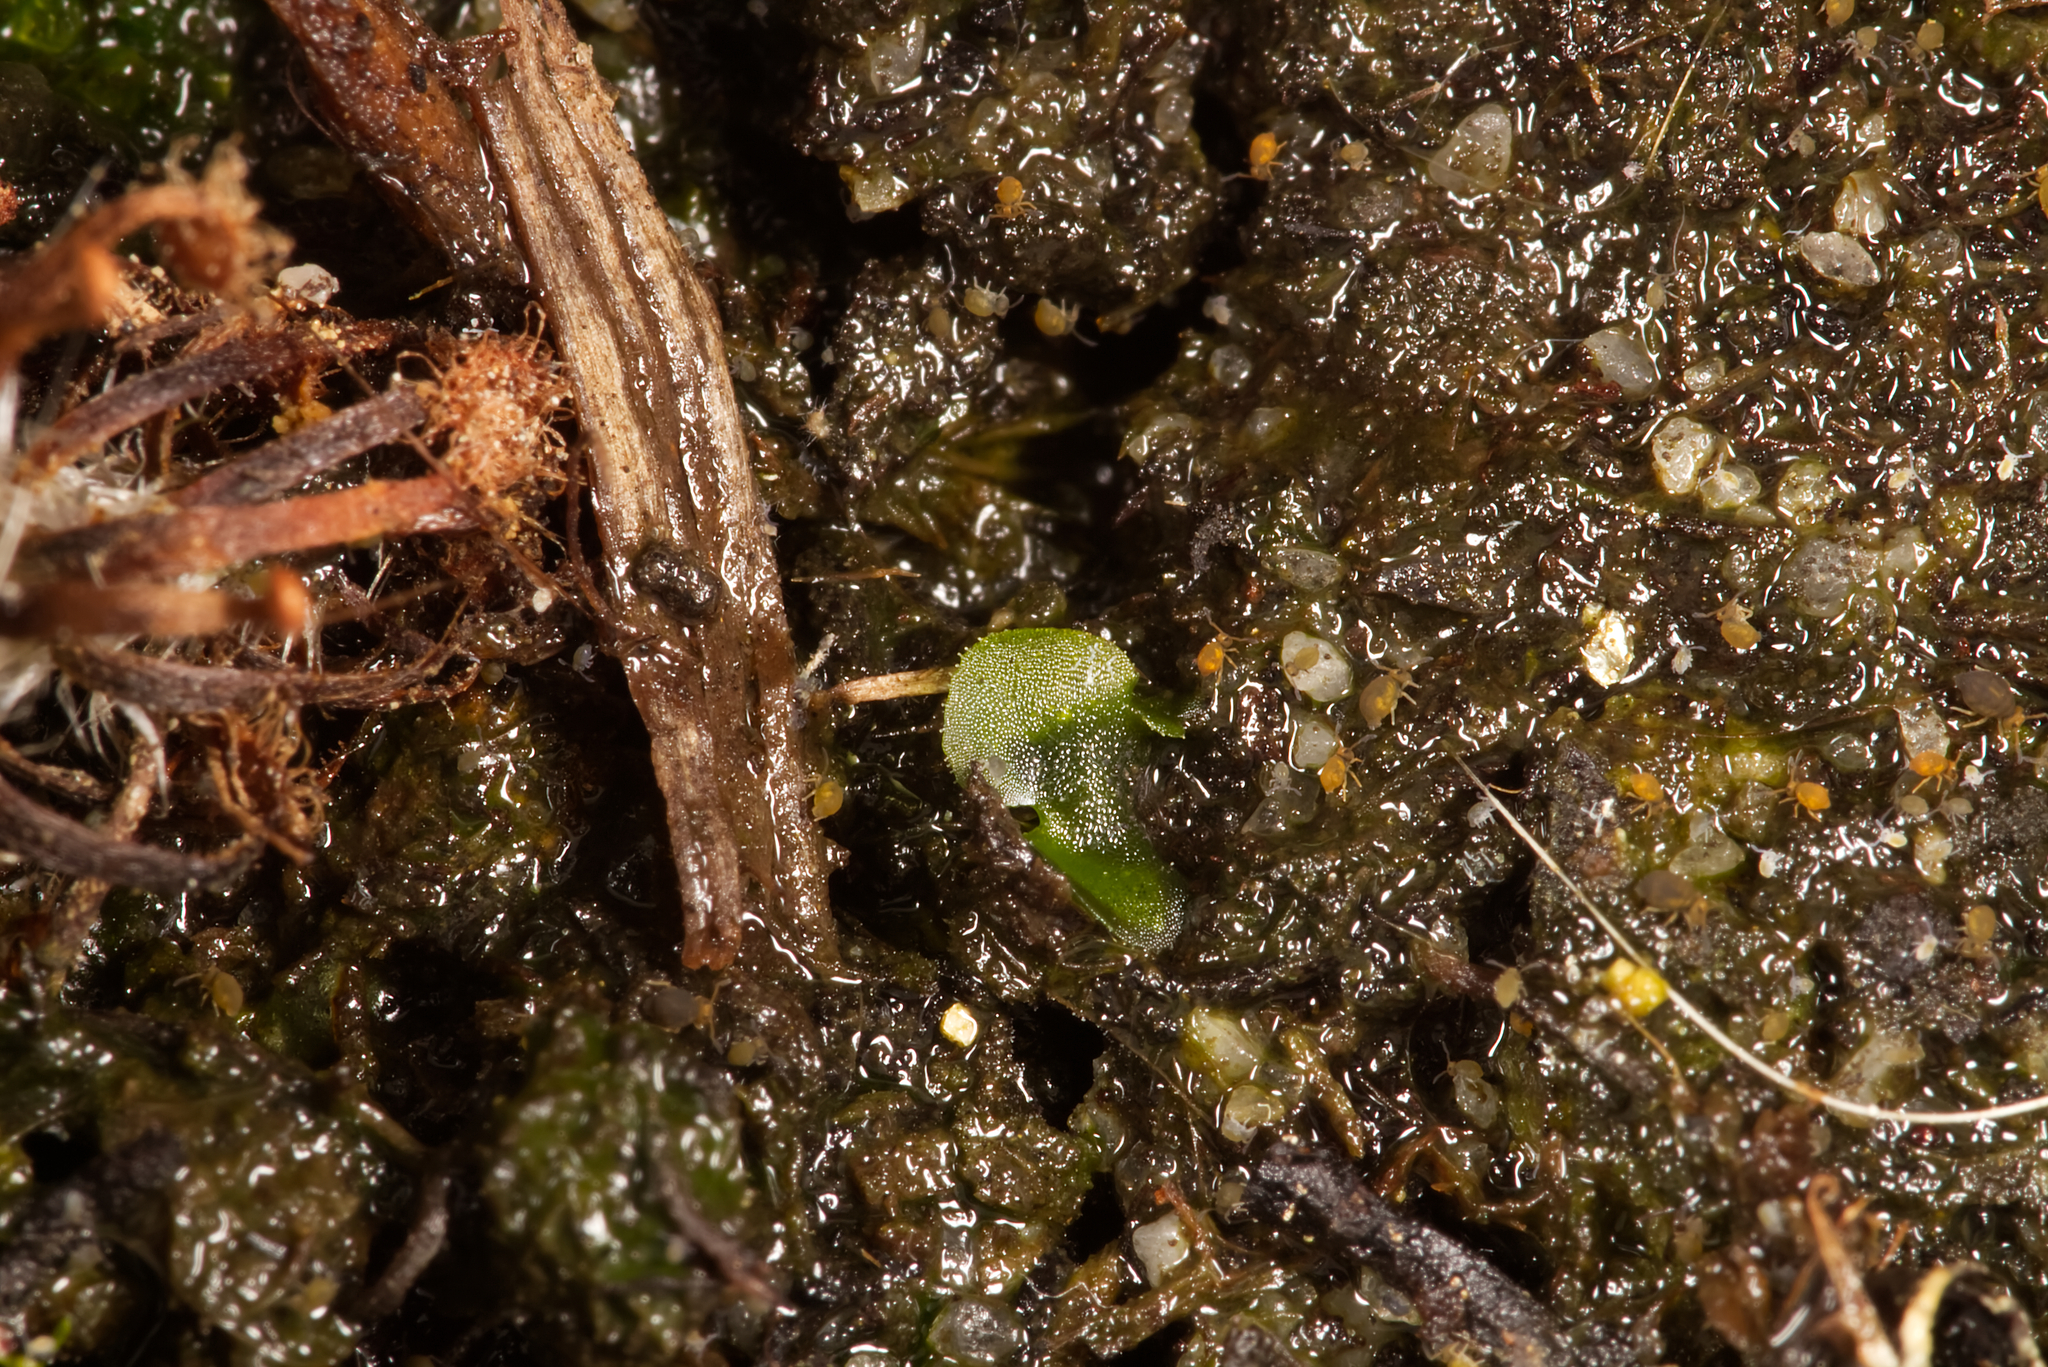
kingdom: Animalia
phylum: Arthropoda
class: Collembola
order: Symphypleona
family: Katiannidae
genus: Sminthurinus
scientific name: Sminthurinus aureus
